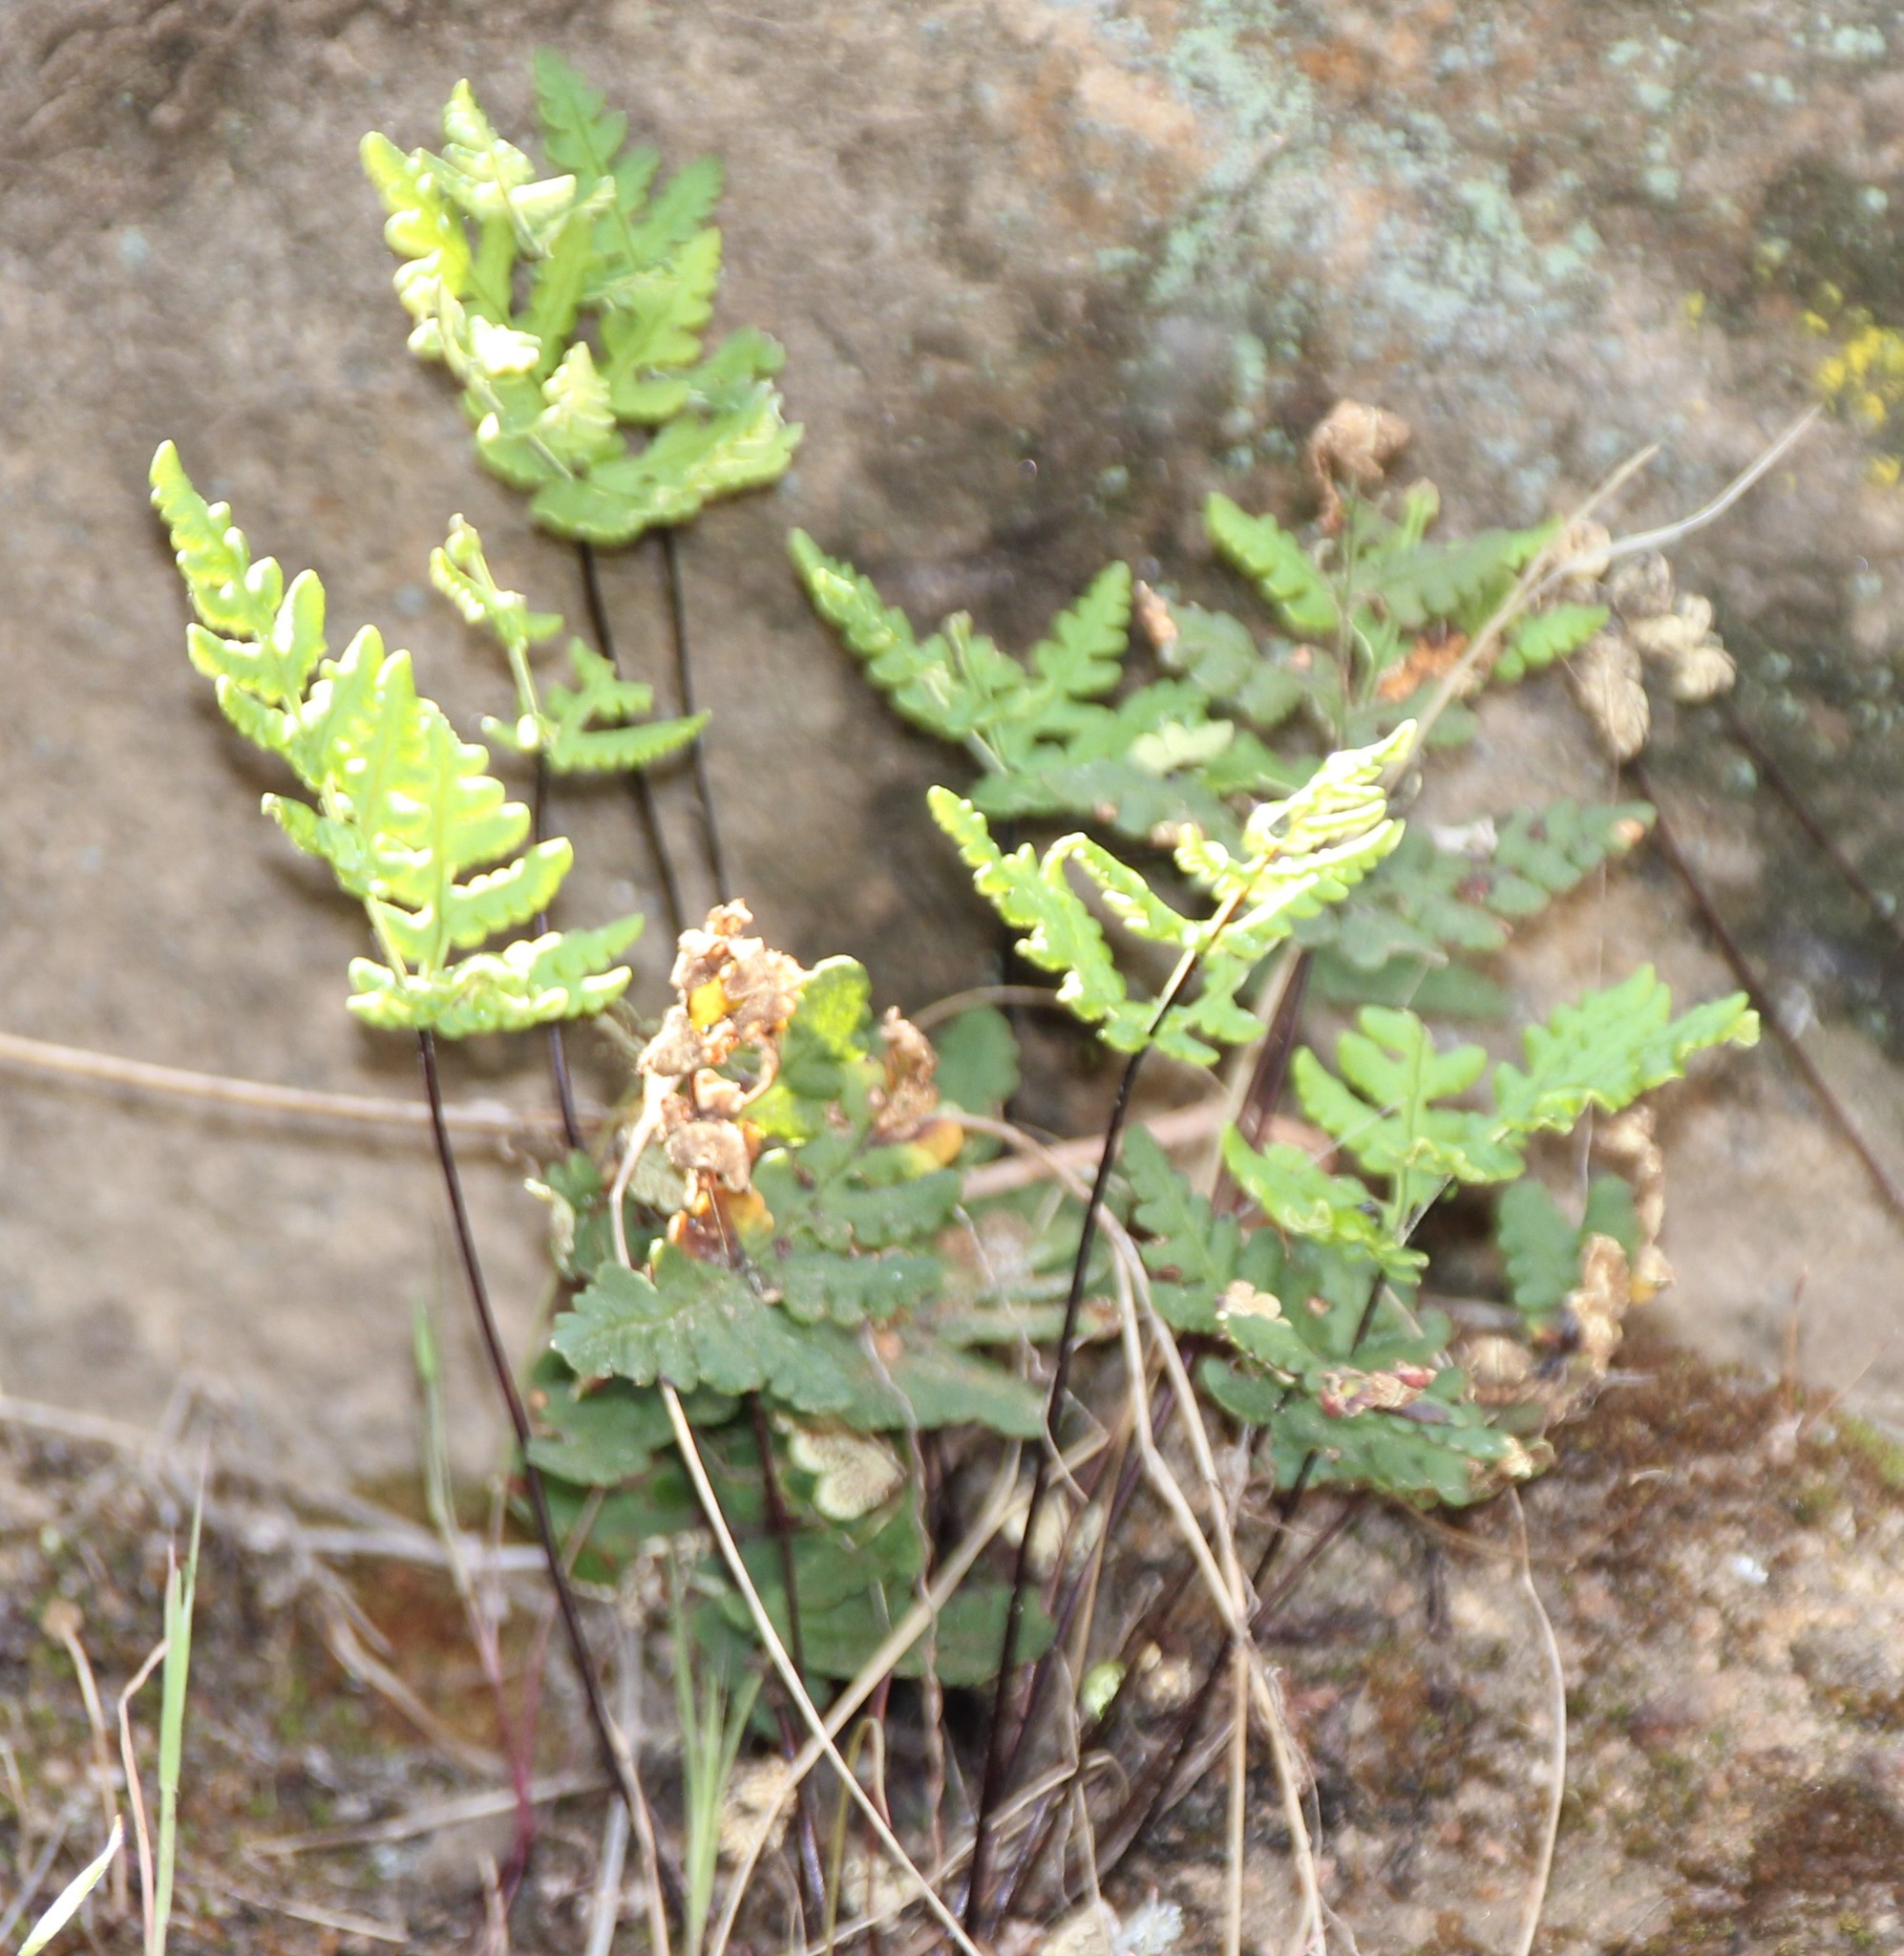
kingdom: Plantae
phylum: Tracheophyta
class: Polypodiopsida
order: Polypodiales
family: Pteridaceae
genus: Pentagramma
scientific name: Pentagramma glanduloviscida
